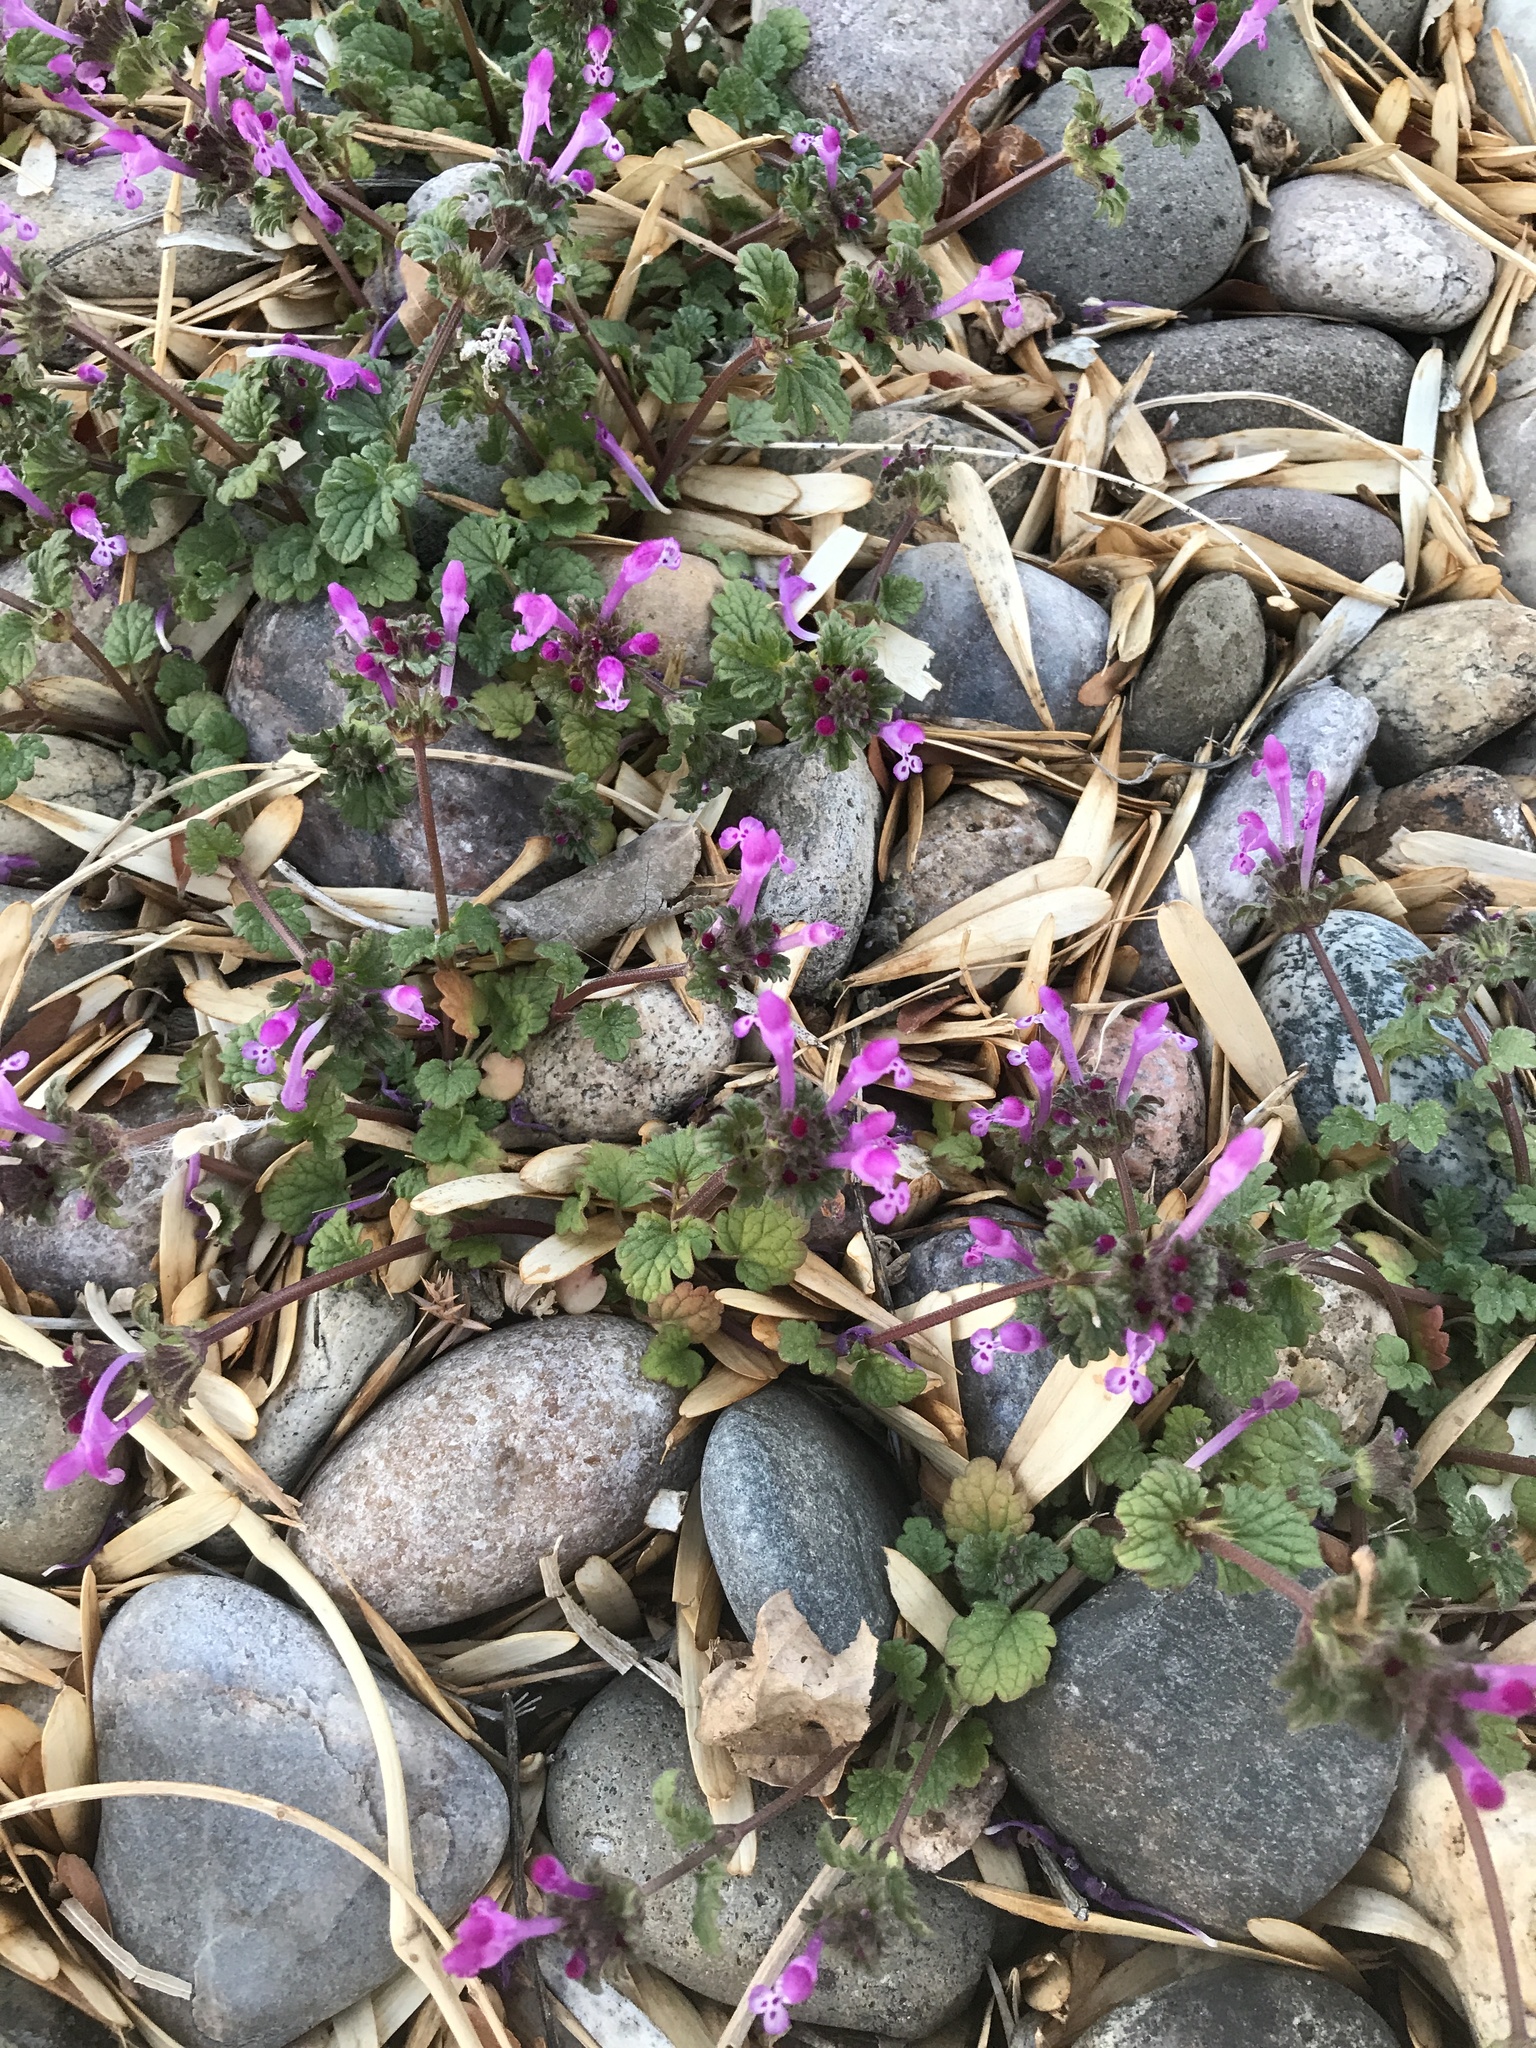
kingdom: Plantae
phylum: Tracheophyta
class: Magnoliopsida
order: Lamiales
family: Lamiaceae
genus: Lamium
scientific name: Lamium amplexicaule
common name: Henbit dead-nettle
